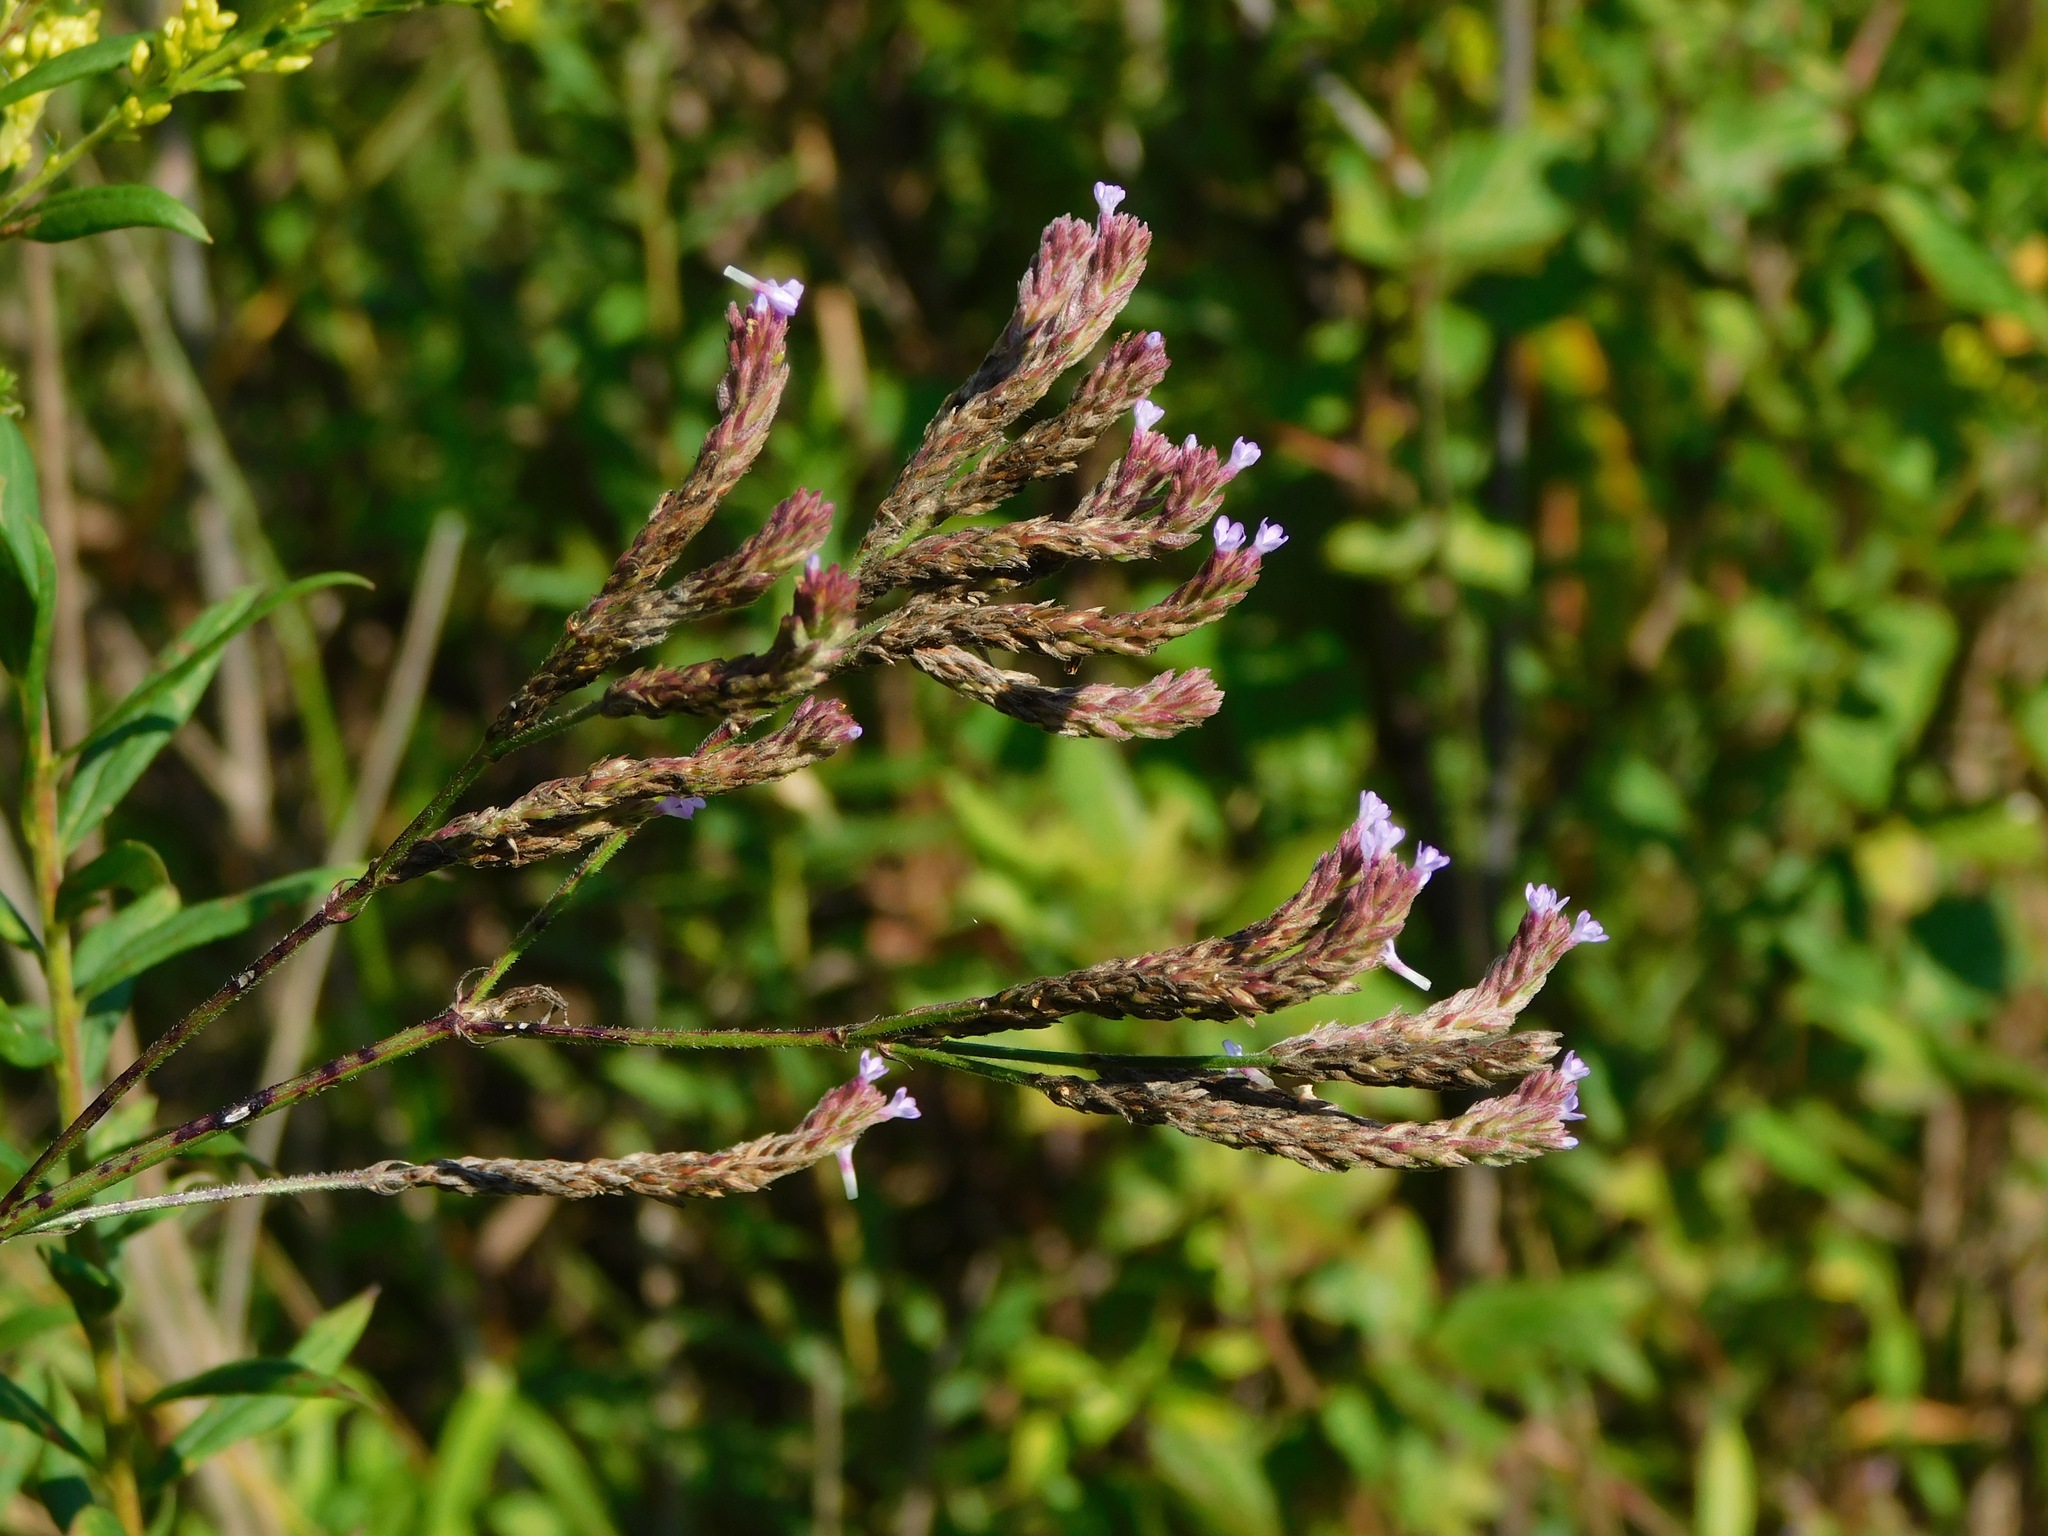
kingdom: Plantae
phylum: Tracheophyta
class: Magnoliopsida
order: Lamiales
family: Verbenaceae
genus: Verbena
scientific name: Verbena brasiliensis
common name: Brazilian vervain
